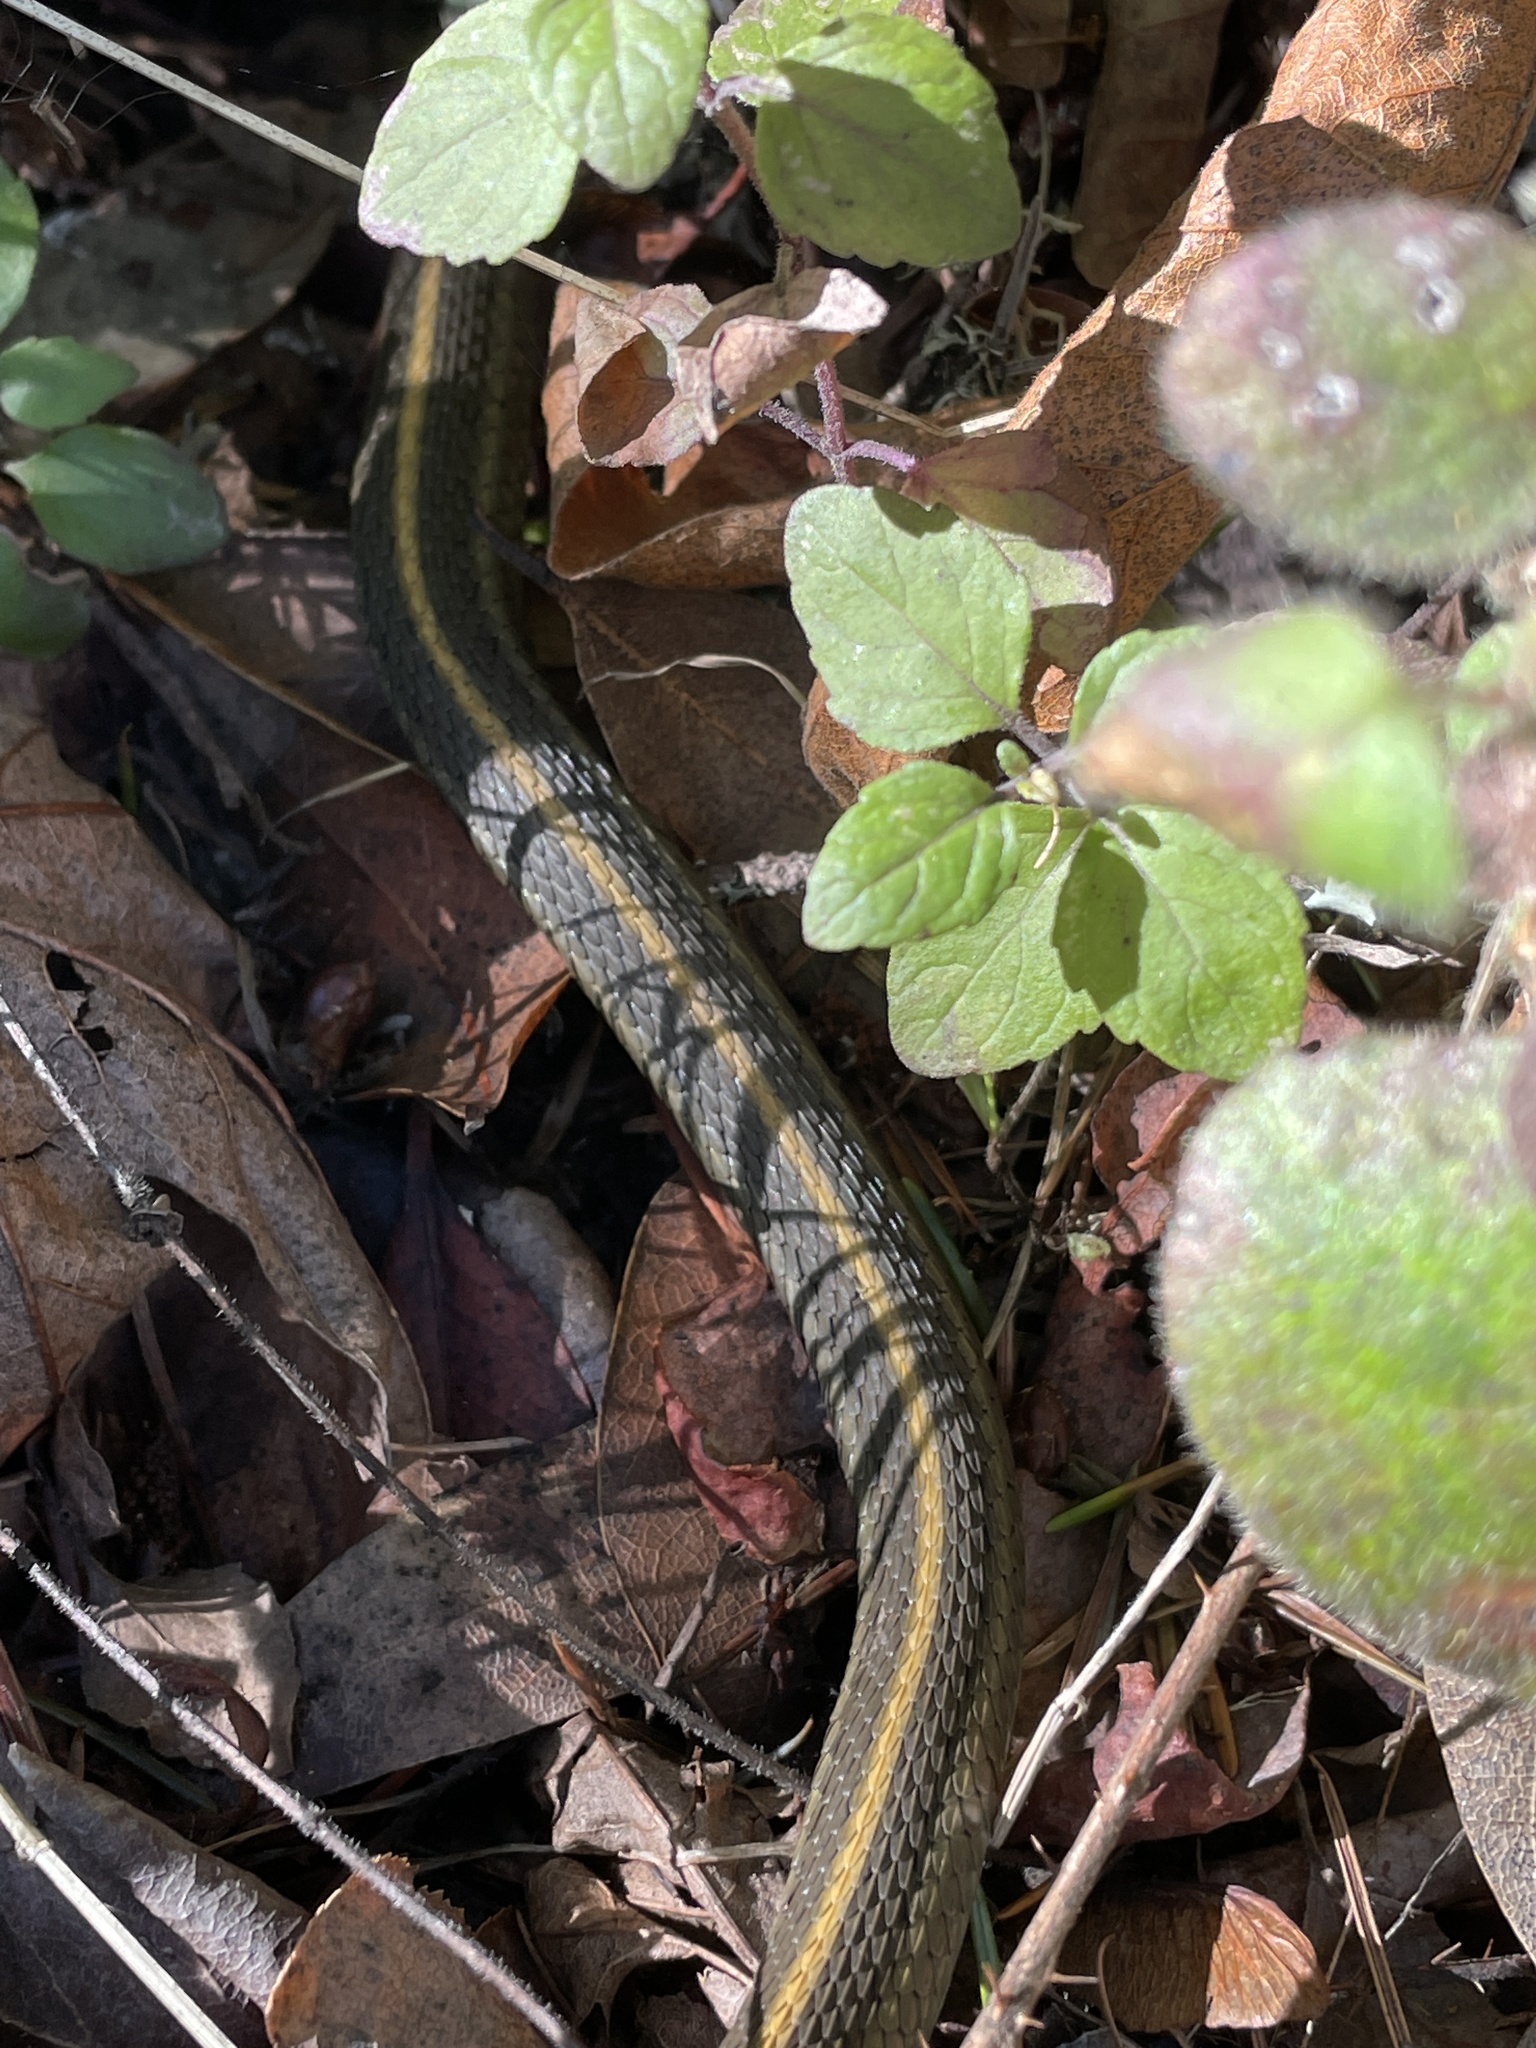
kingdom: Animalia
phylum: Chordata
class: Squamata
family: Colubridae
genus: Thamnophis
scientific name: Thamnophis atratus
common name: Pacific coast aquatic garter snake
